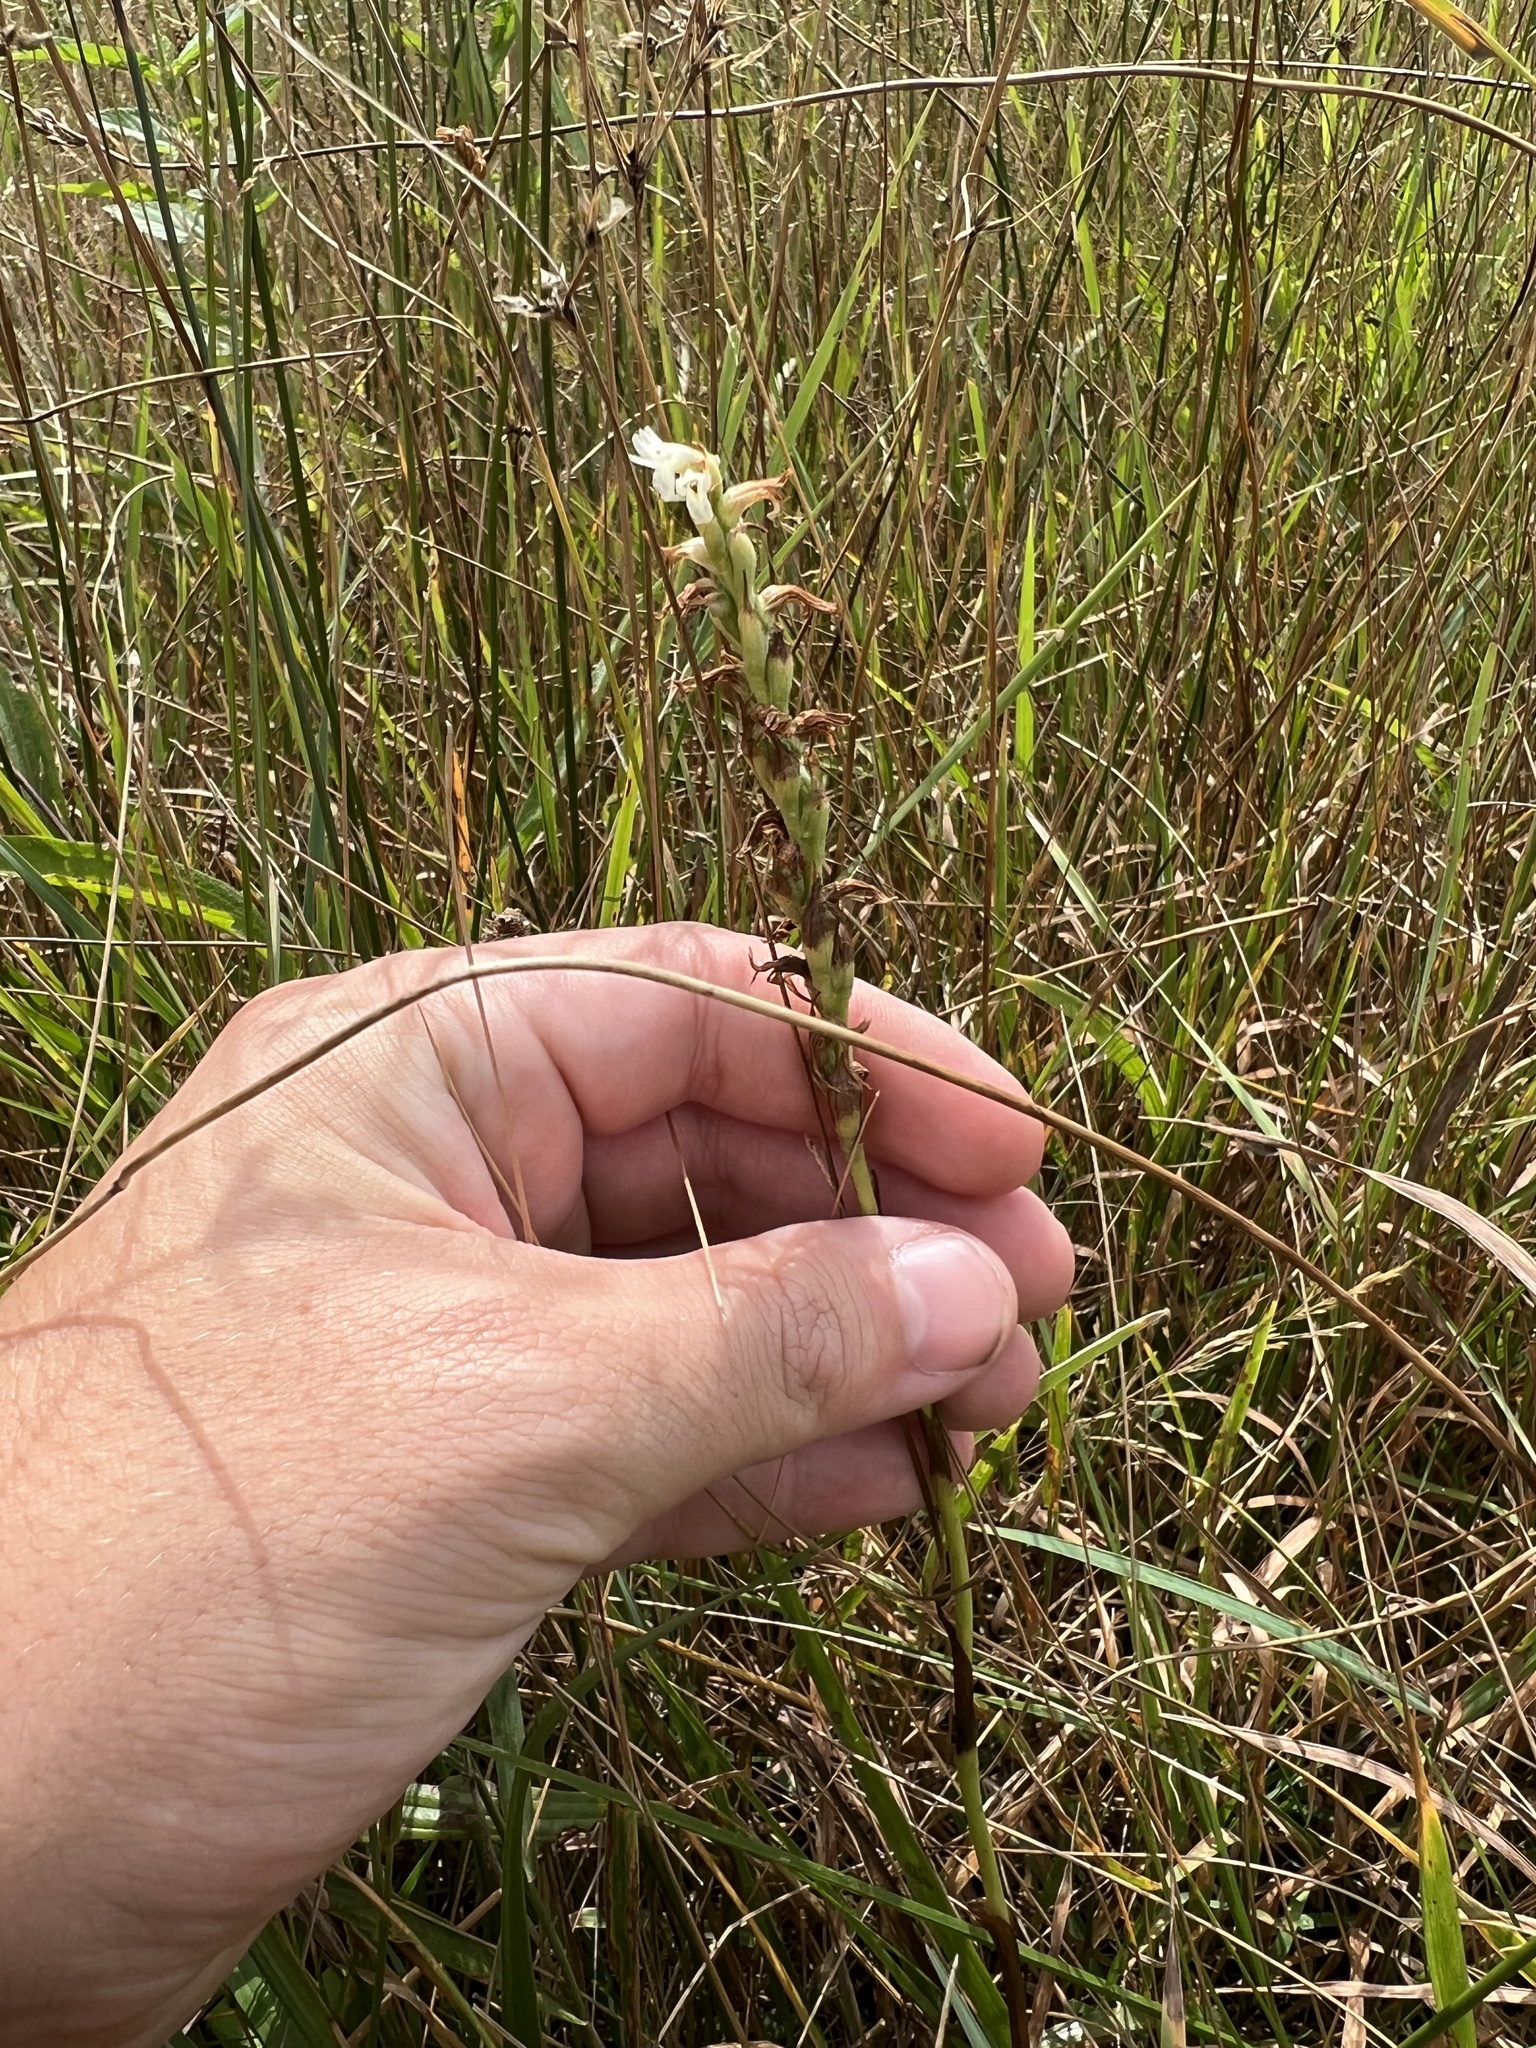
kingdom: Plantae
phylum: Tracheophyta
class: Liliopsida
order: Asparagales
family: Orchidaceae
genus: Spiranthes
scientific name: Spiranthes diluvialis
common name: Ute ladies'-tresses
